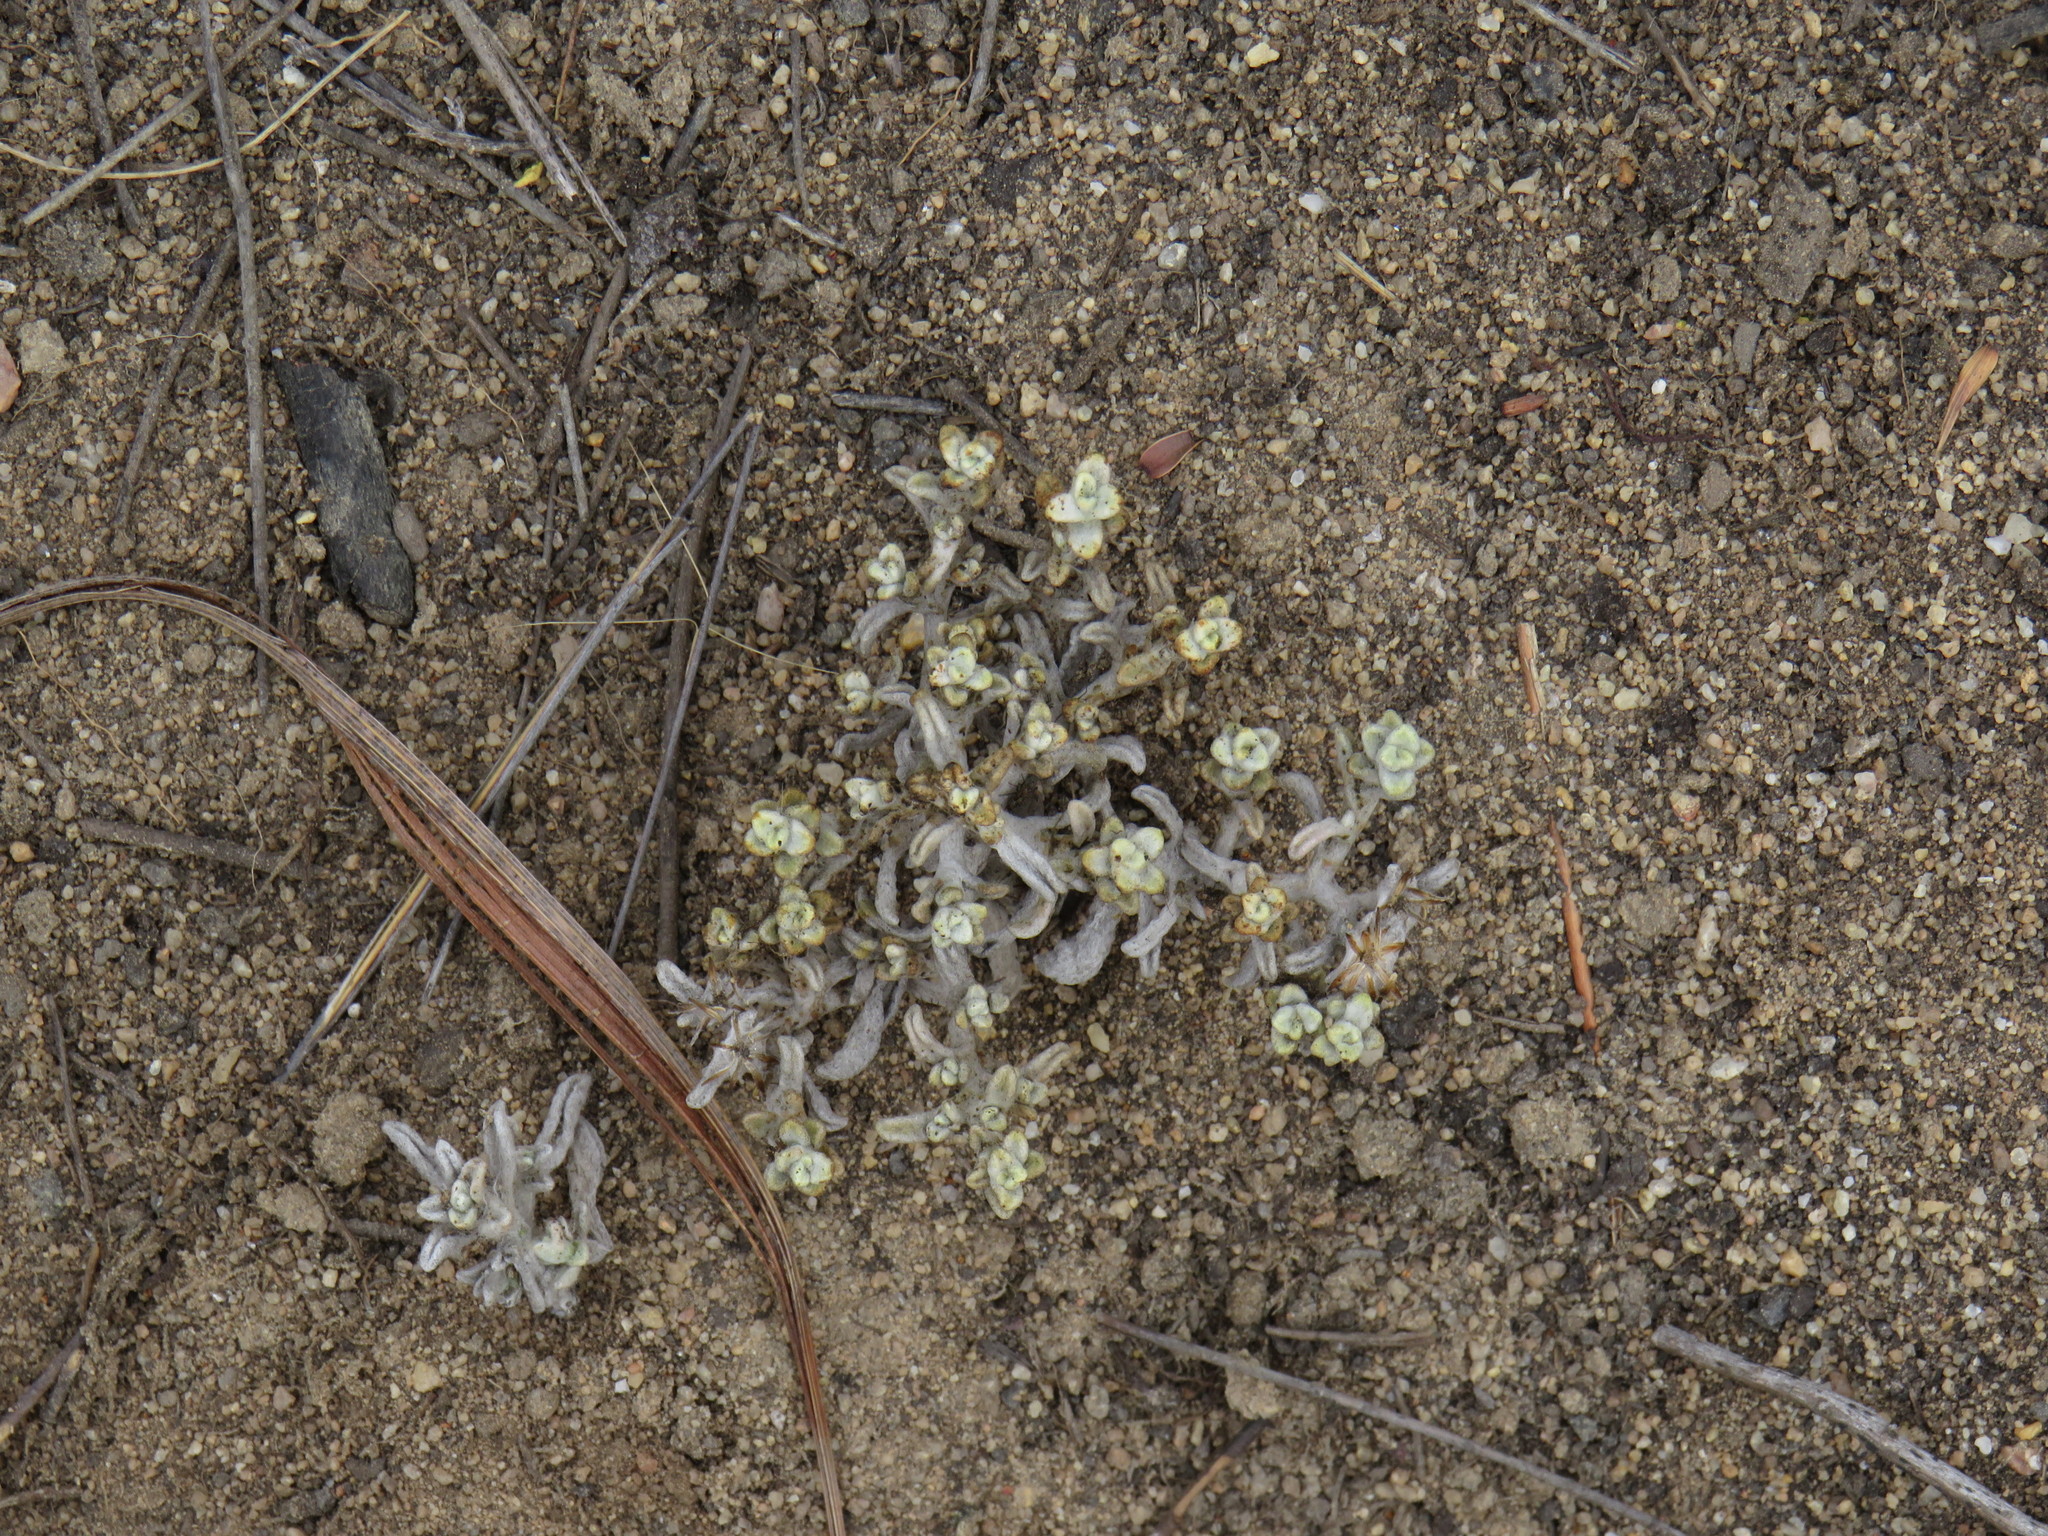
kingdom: Plantae
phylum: Tracheophyta
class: Magnoliopsida
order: Asterales
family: Asteraceae
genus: Helichrysum
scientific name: Helichrysum tinctum
